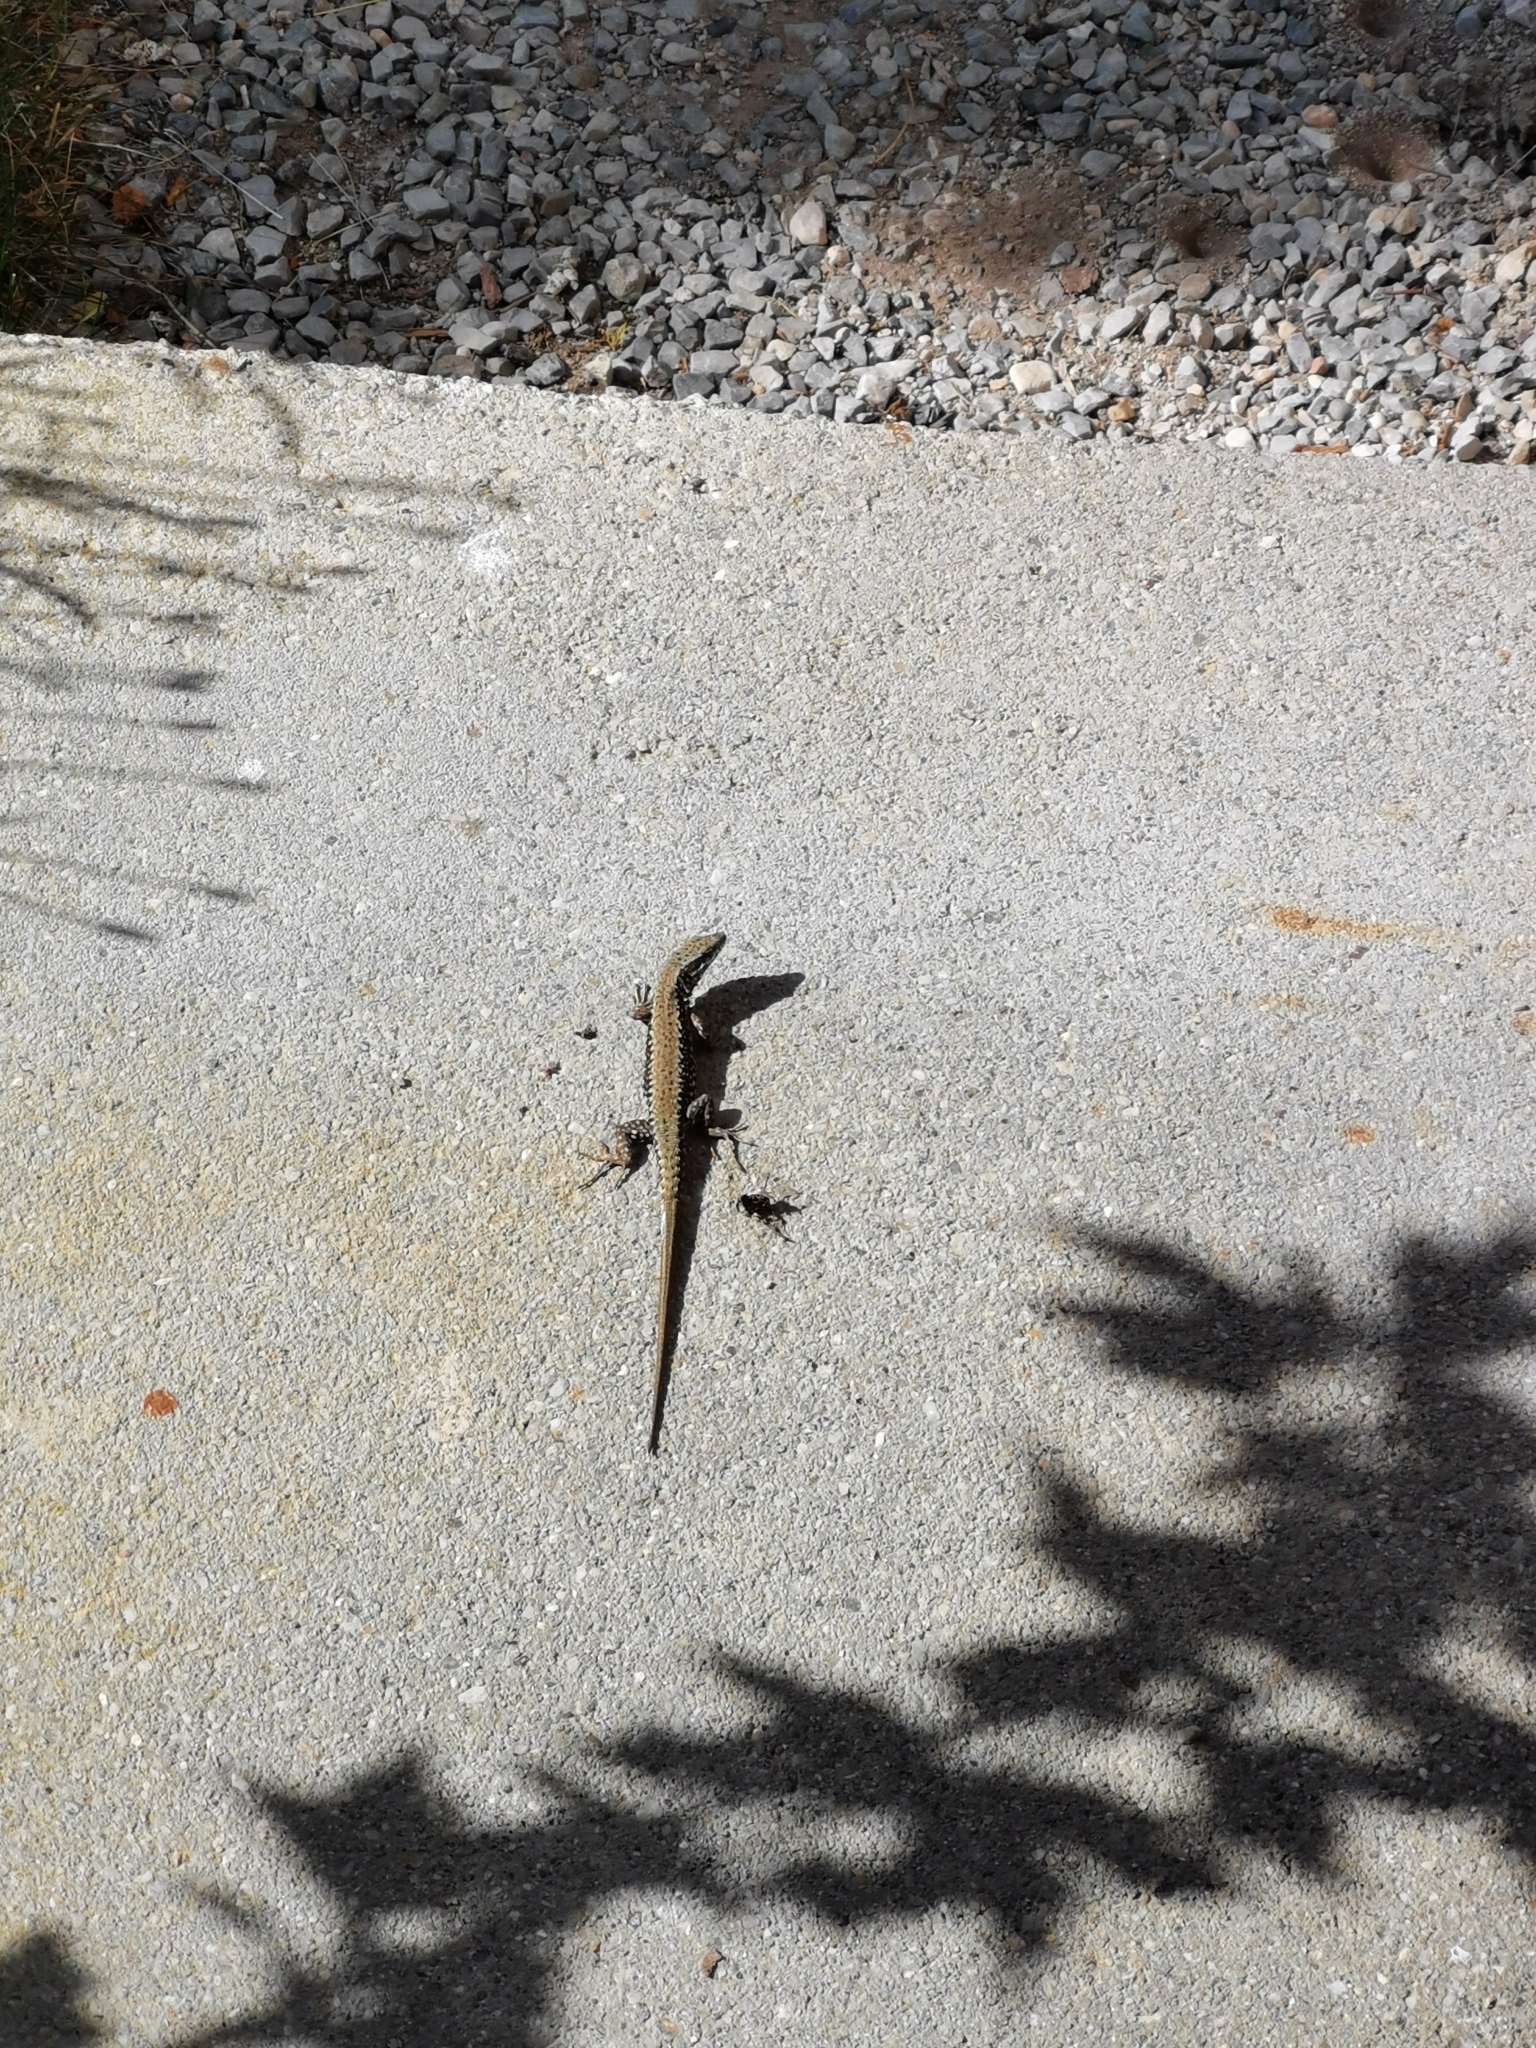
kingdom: Animalia
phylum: Chordata
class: Squamata
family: Lacertidae
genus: Podarcis
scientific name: Podarcis muralis
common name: Common wall lizard
